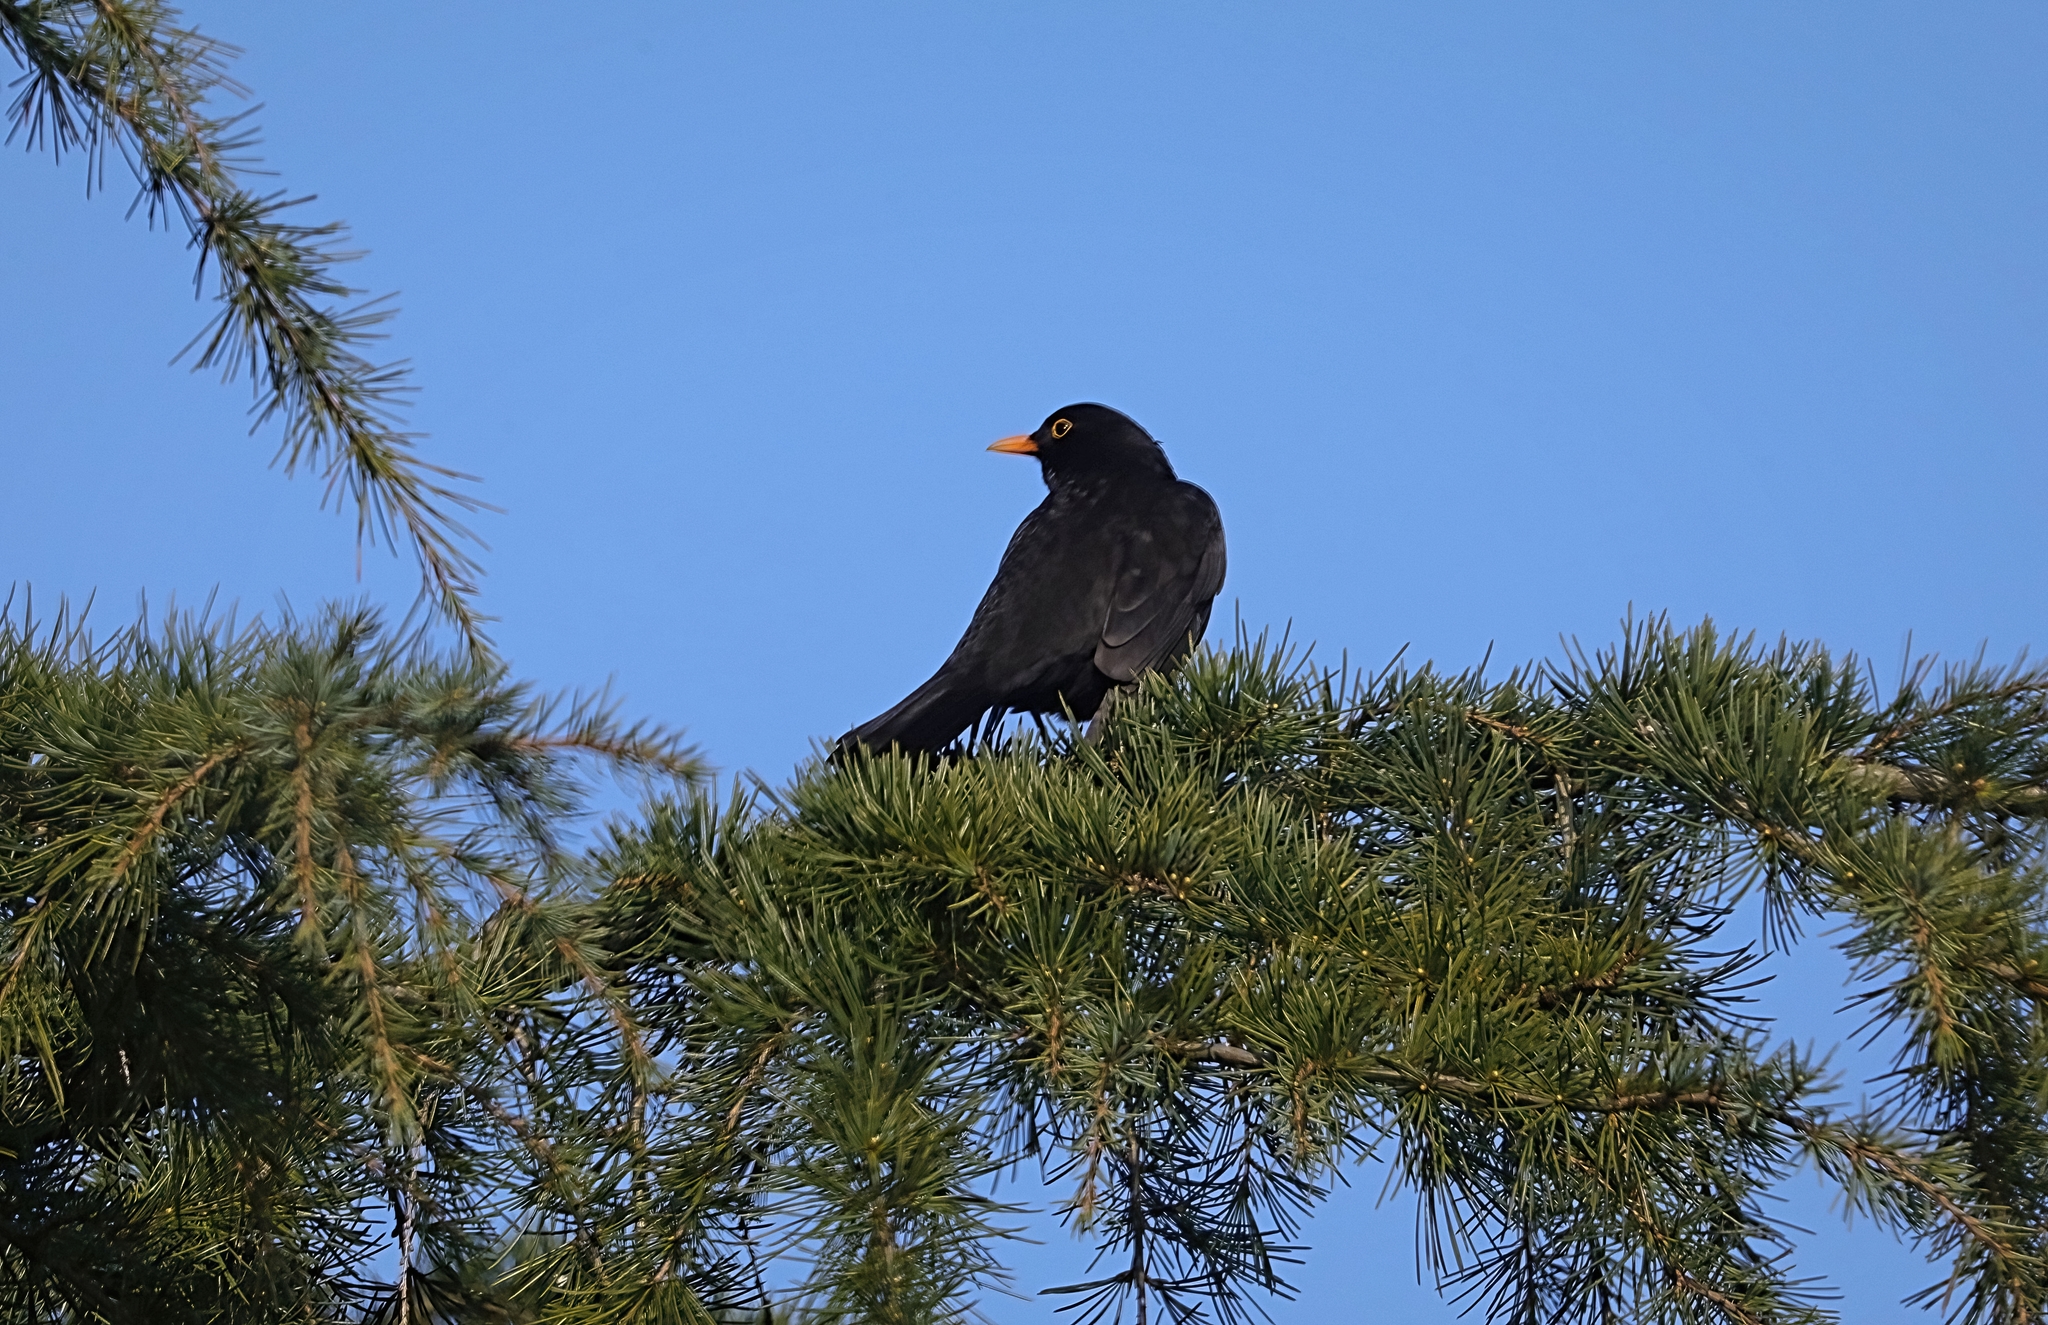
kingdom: Animalia
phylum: Chordata
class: Aves
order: Passeriformes
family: Turdidae
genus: Turdus
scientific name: Turdus merula
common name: Common blackbird
